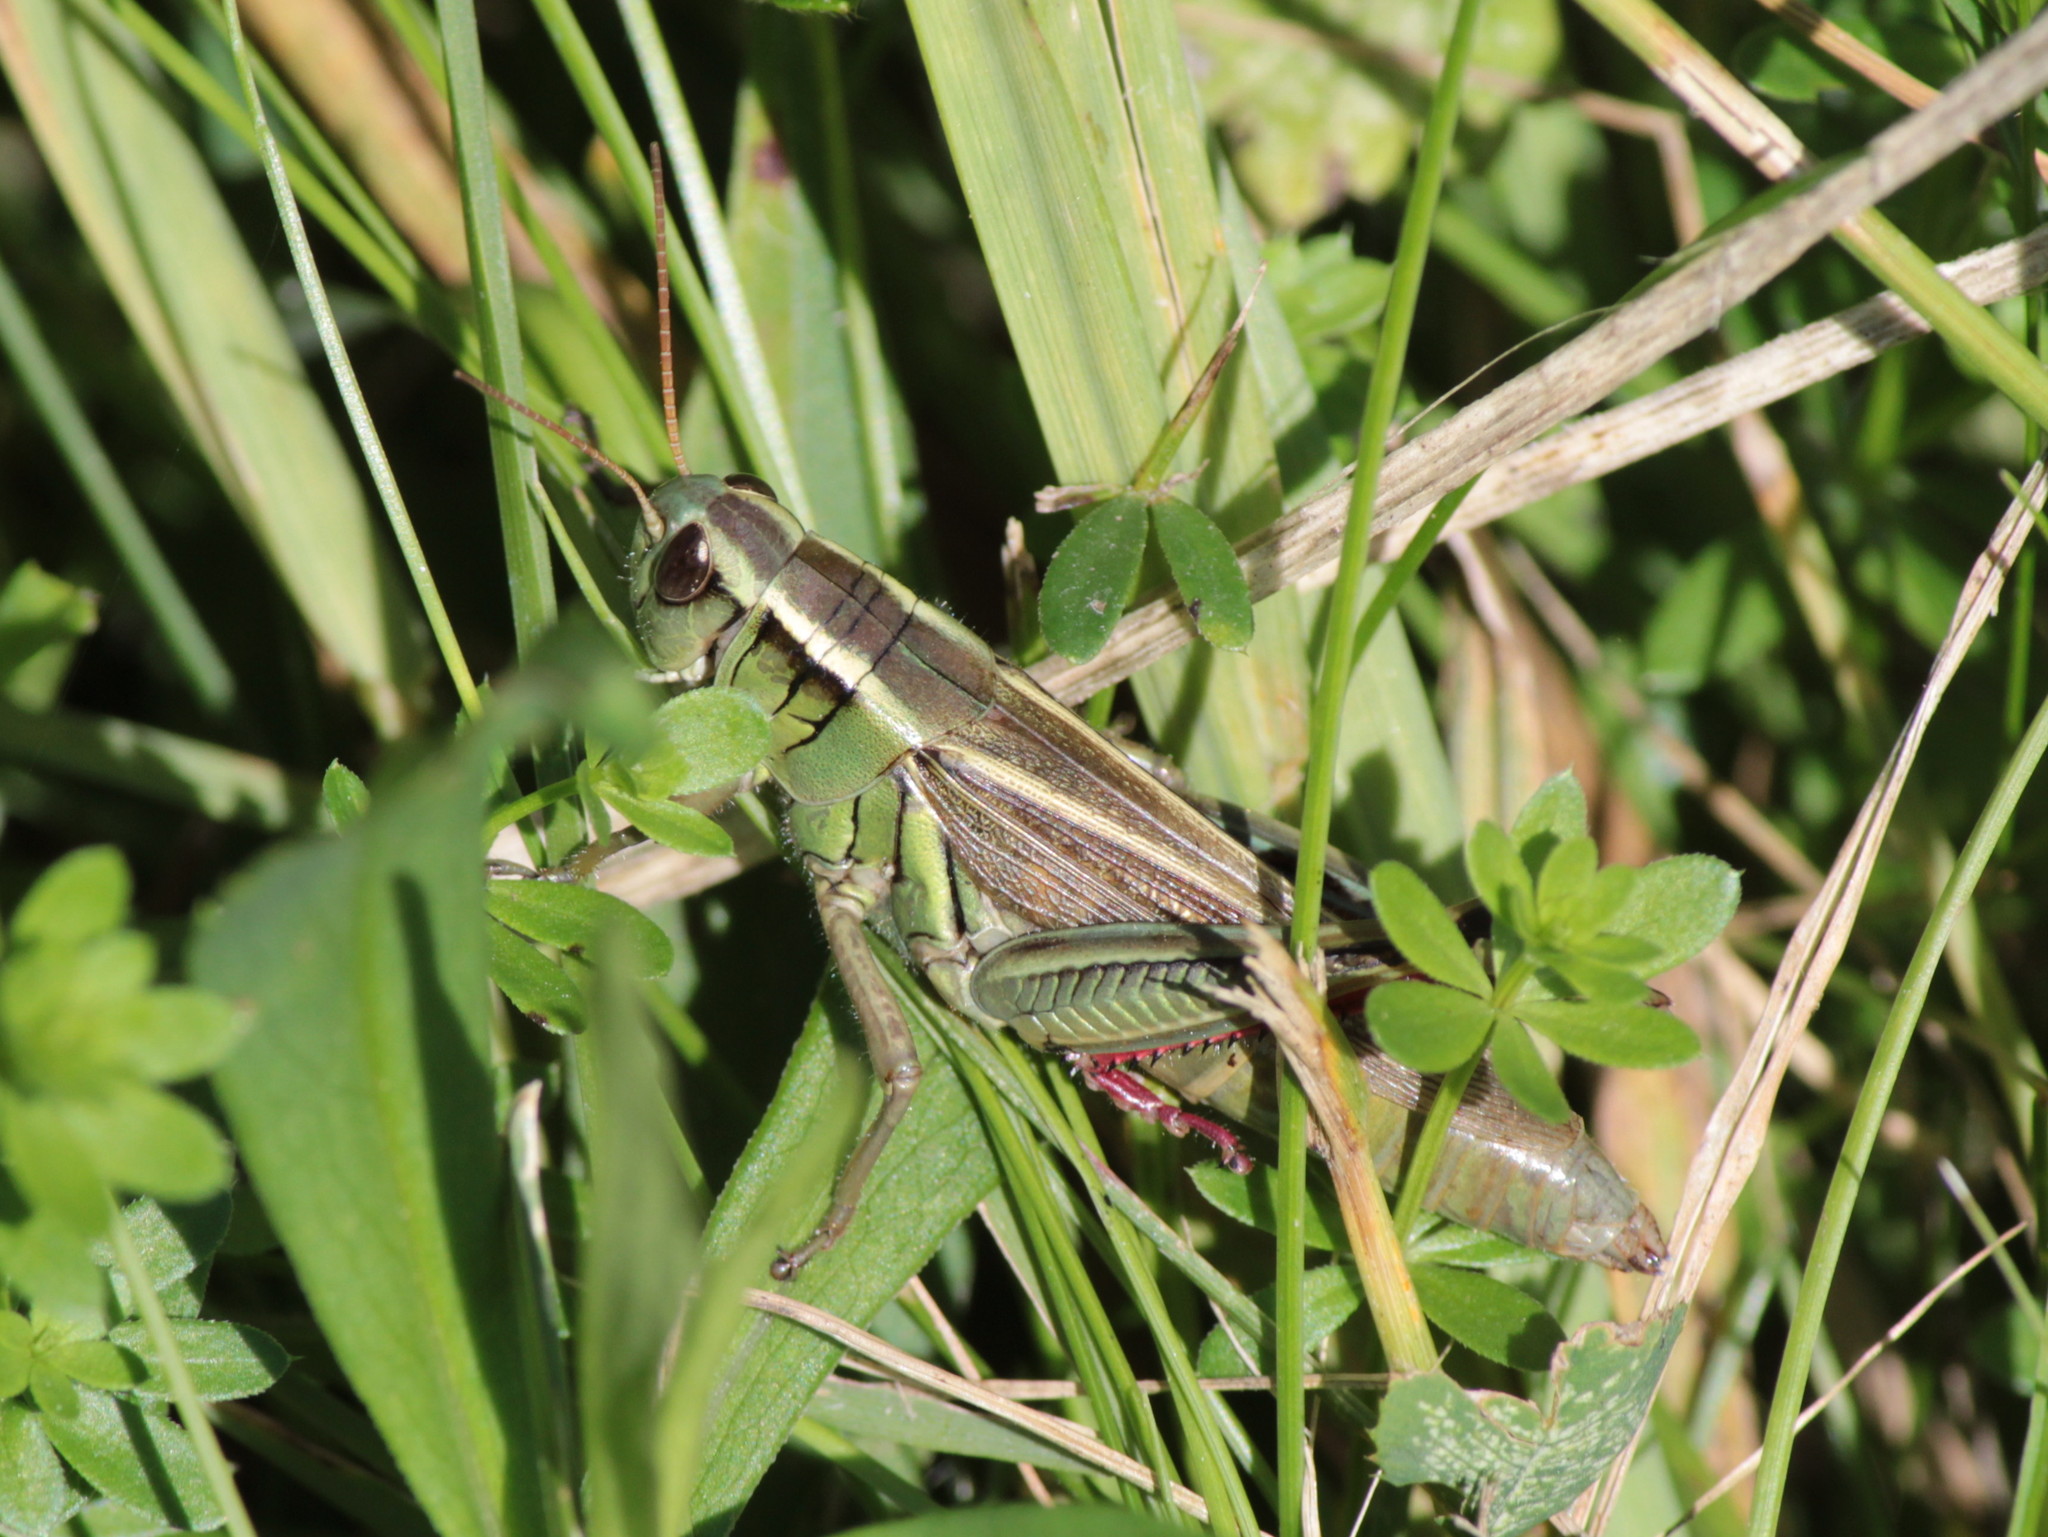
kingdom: Animalia
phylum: Arthropoda
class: Insecta
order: Orthoptera
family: Acrididae
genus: Melanoplus
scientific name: Melanoplus bivittatus
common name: Two-striped grasshopper
